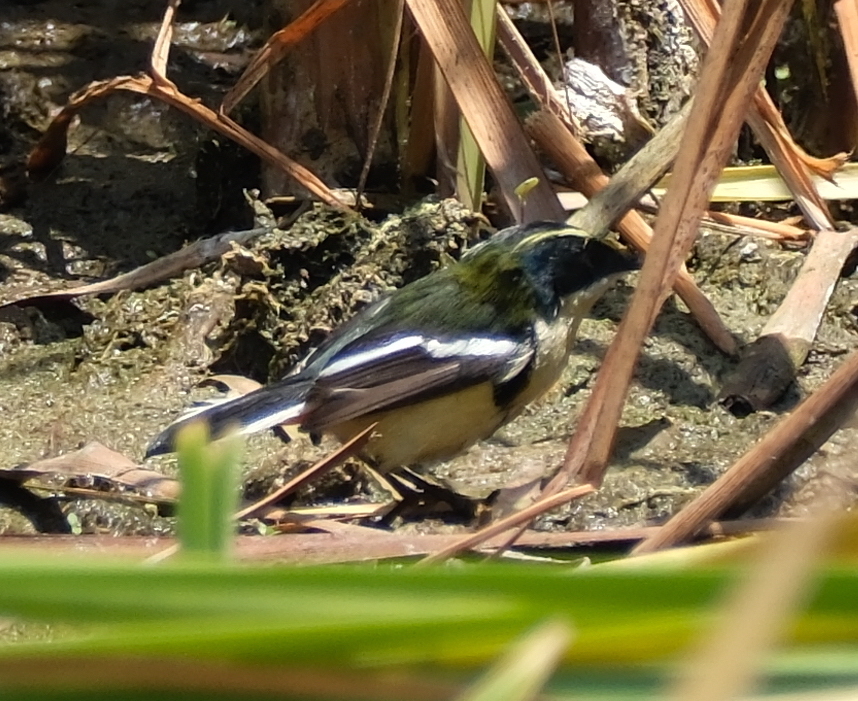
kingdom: Animalia
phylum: Chordata
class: Aves
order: Passeriformes
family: Tyrannidae
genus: Tachuris
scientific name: Tachuris rubrigastra
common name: Many-colored rush tyrant
